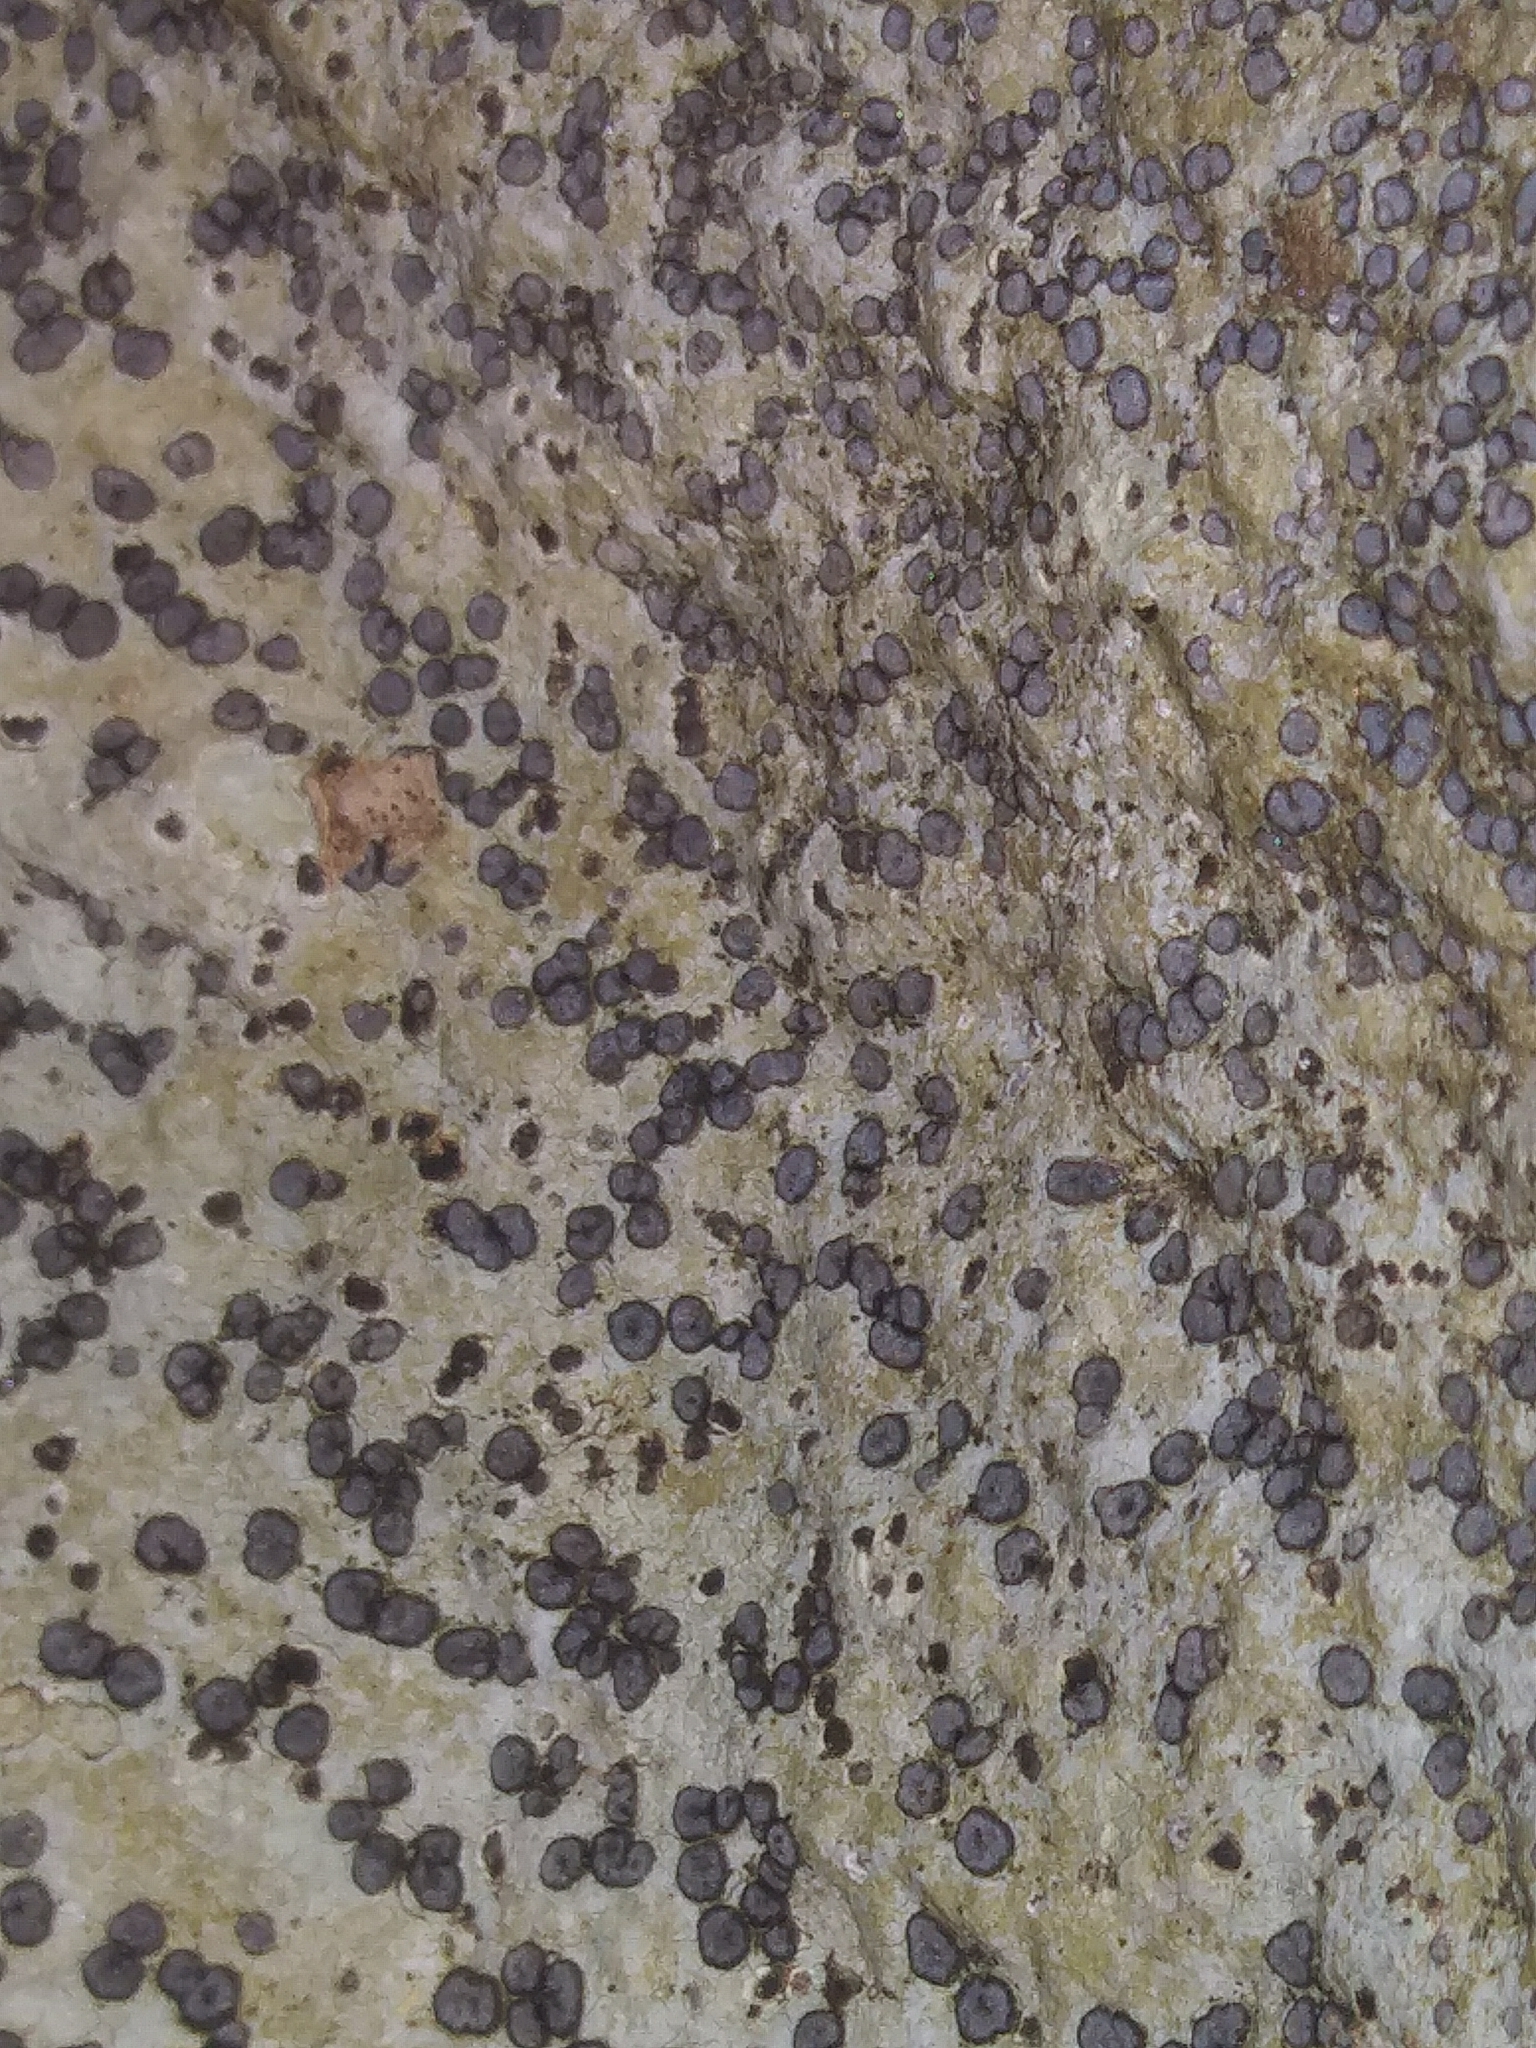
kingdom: Fungi
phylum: Ascomycota
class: Lecanoromycetes
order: Lecideales
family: Lecideaceae
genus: Porpidia
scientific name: Porpidia albocaerulescens
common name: Smokey-eyed boulder lichen
